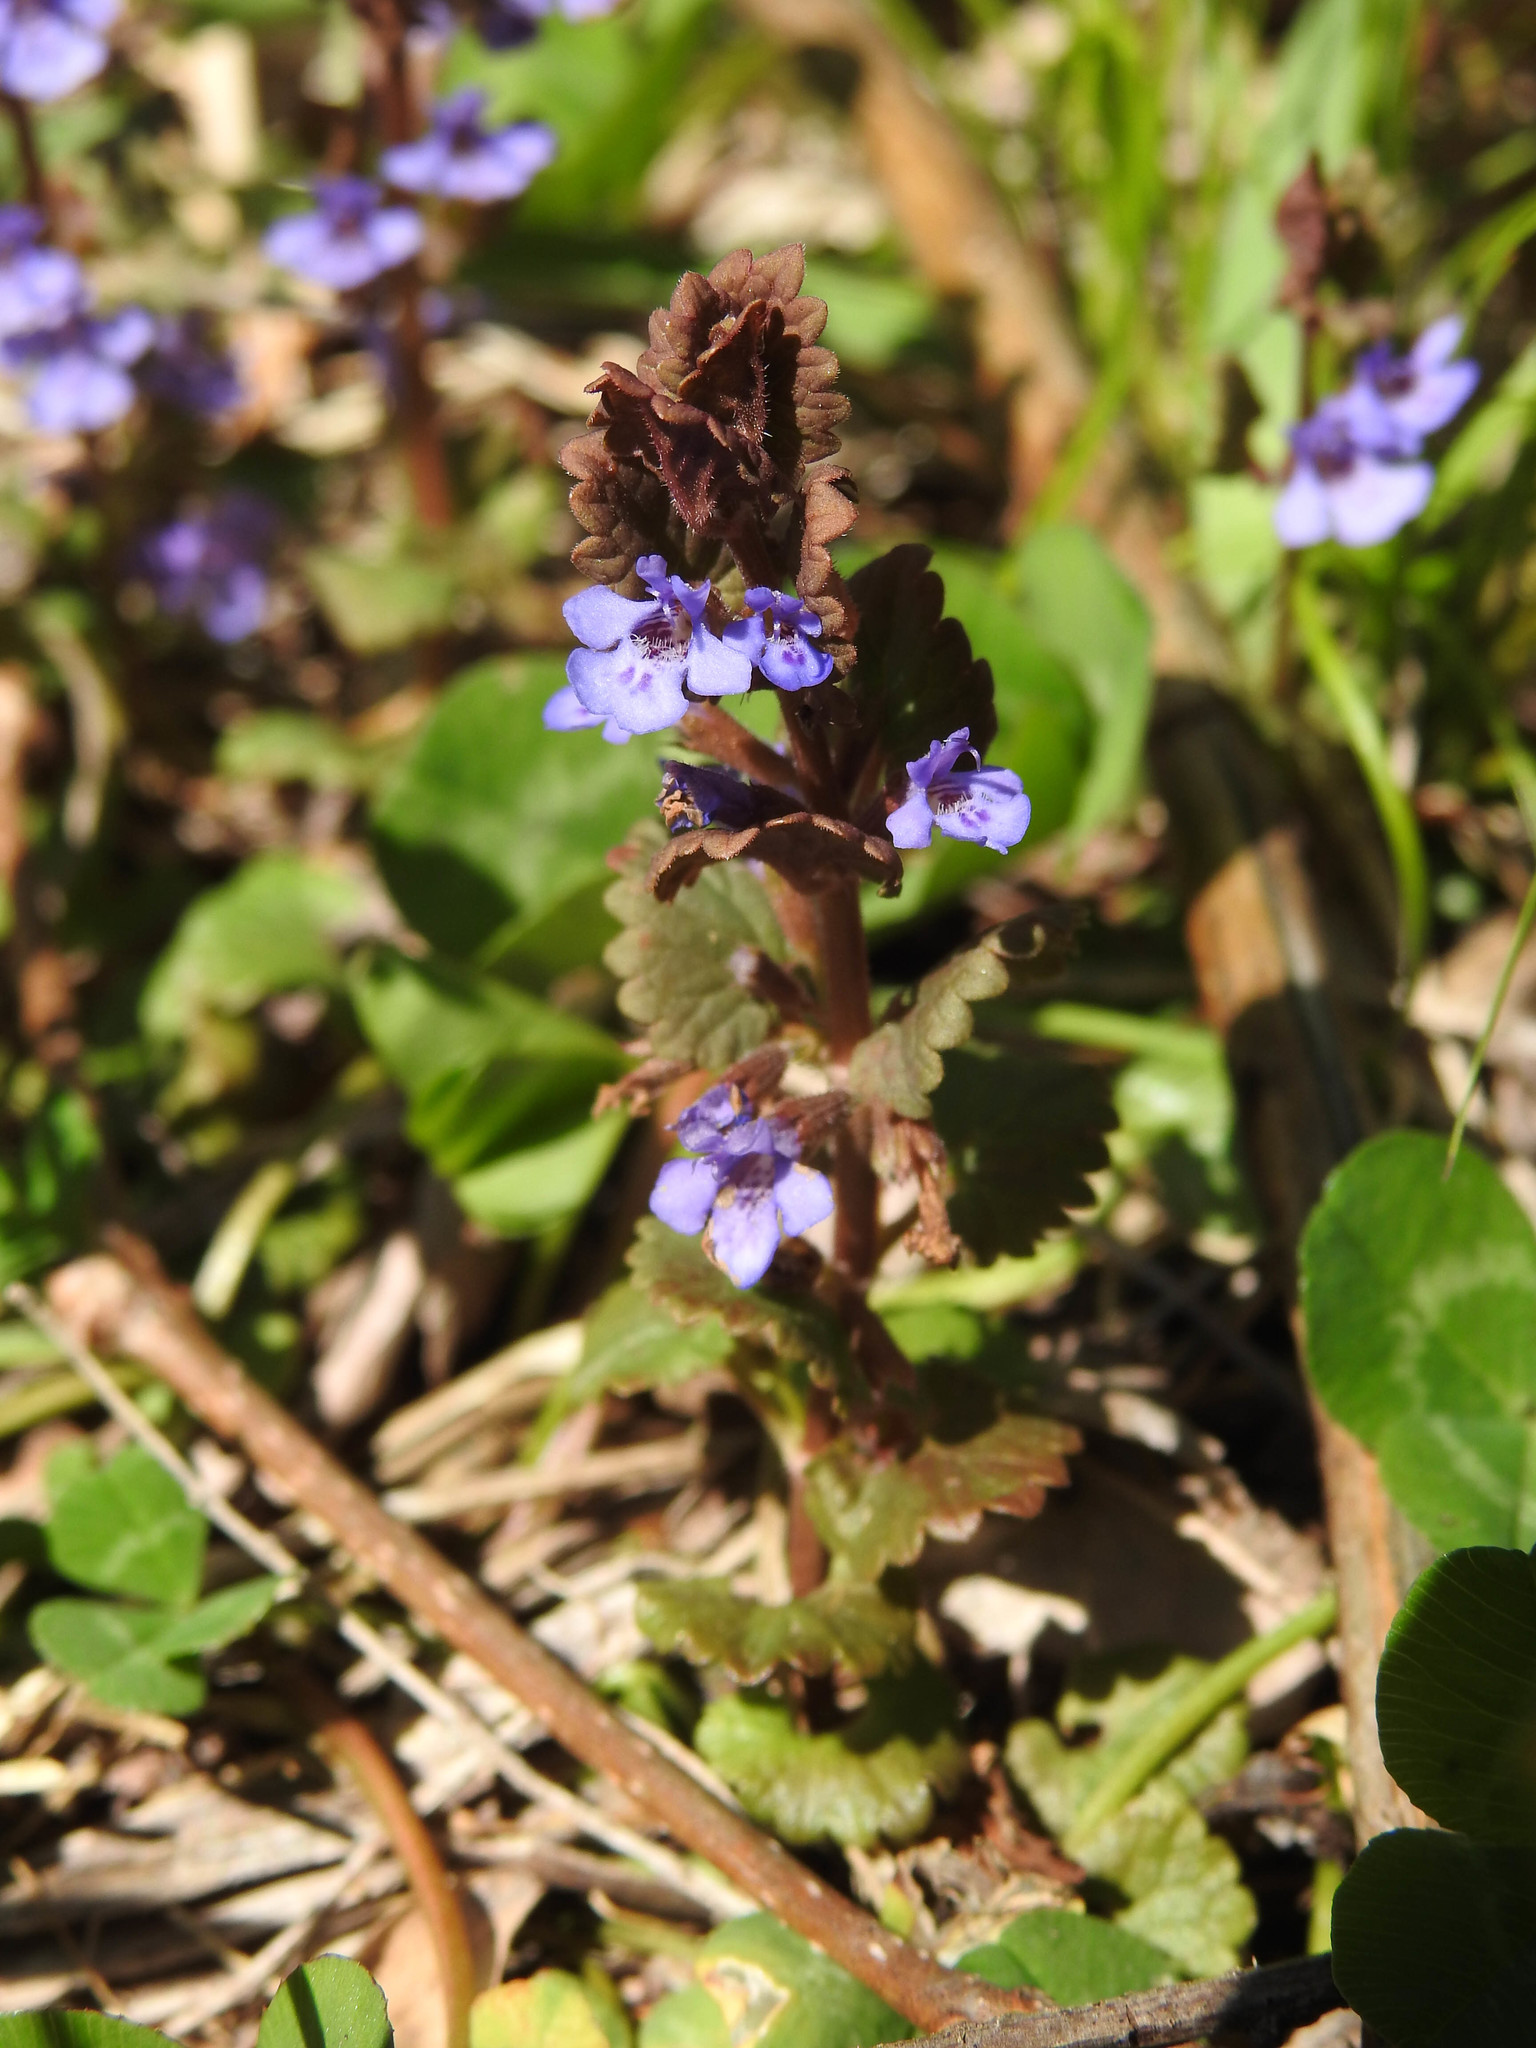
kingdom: Plantae
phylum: Tracheophyta
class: Magnoliopsida
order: Lamiales
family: Lamiaceae
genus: Glechoma
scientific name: Glechoma hederacea
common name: Ground ivy
